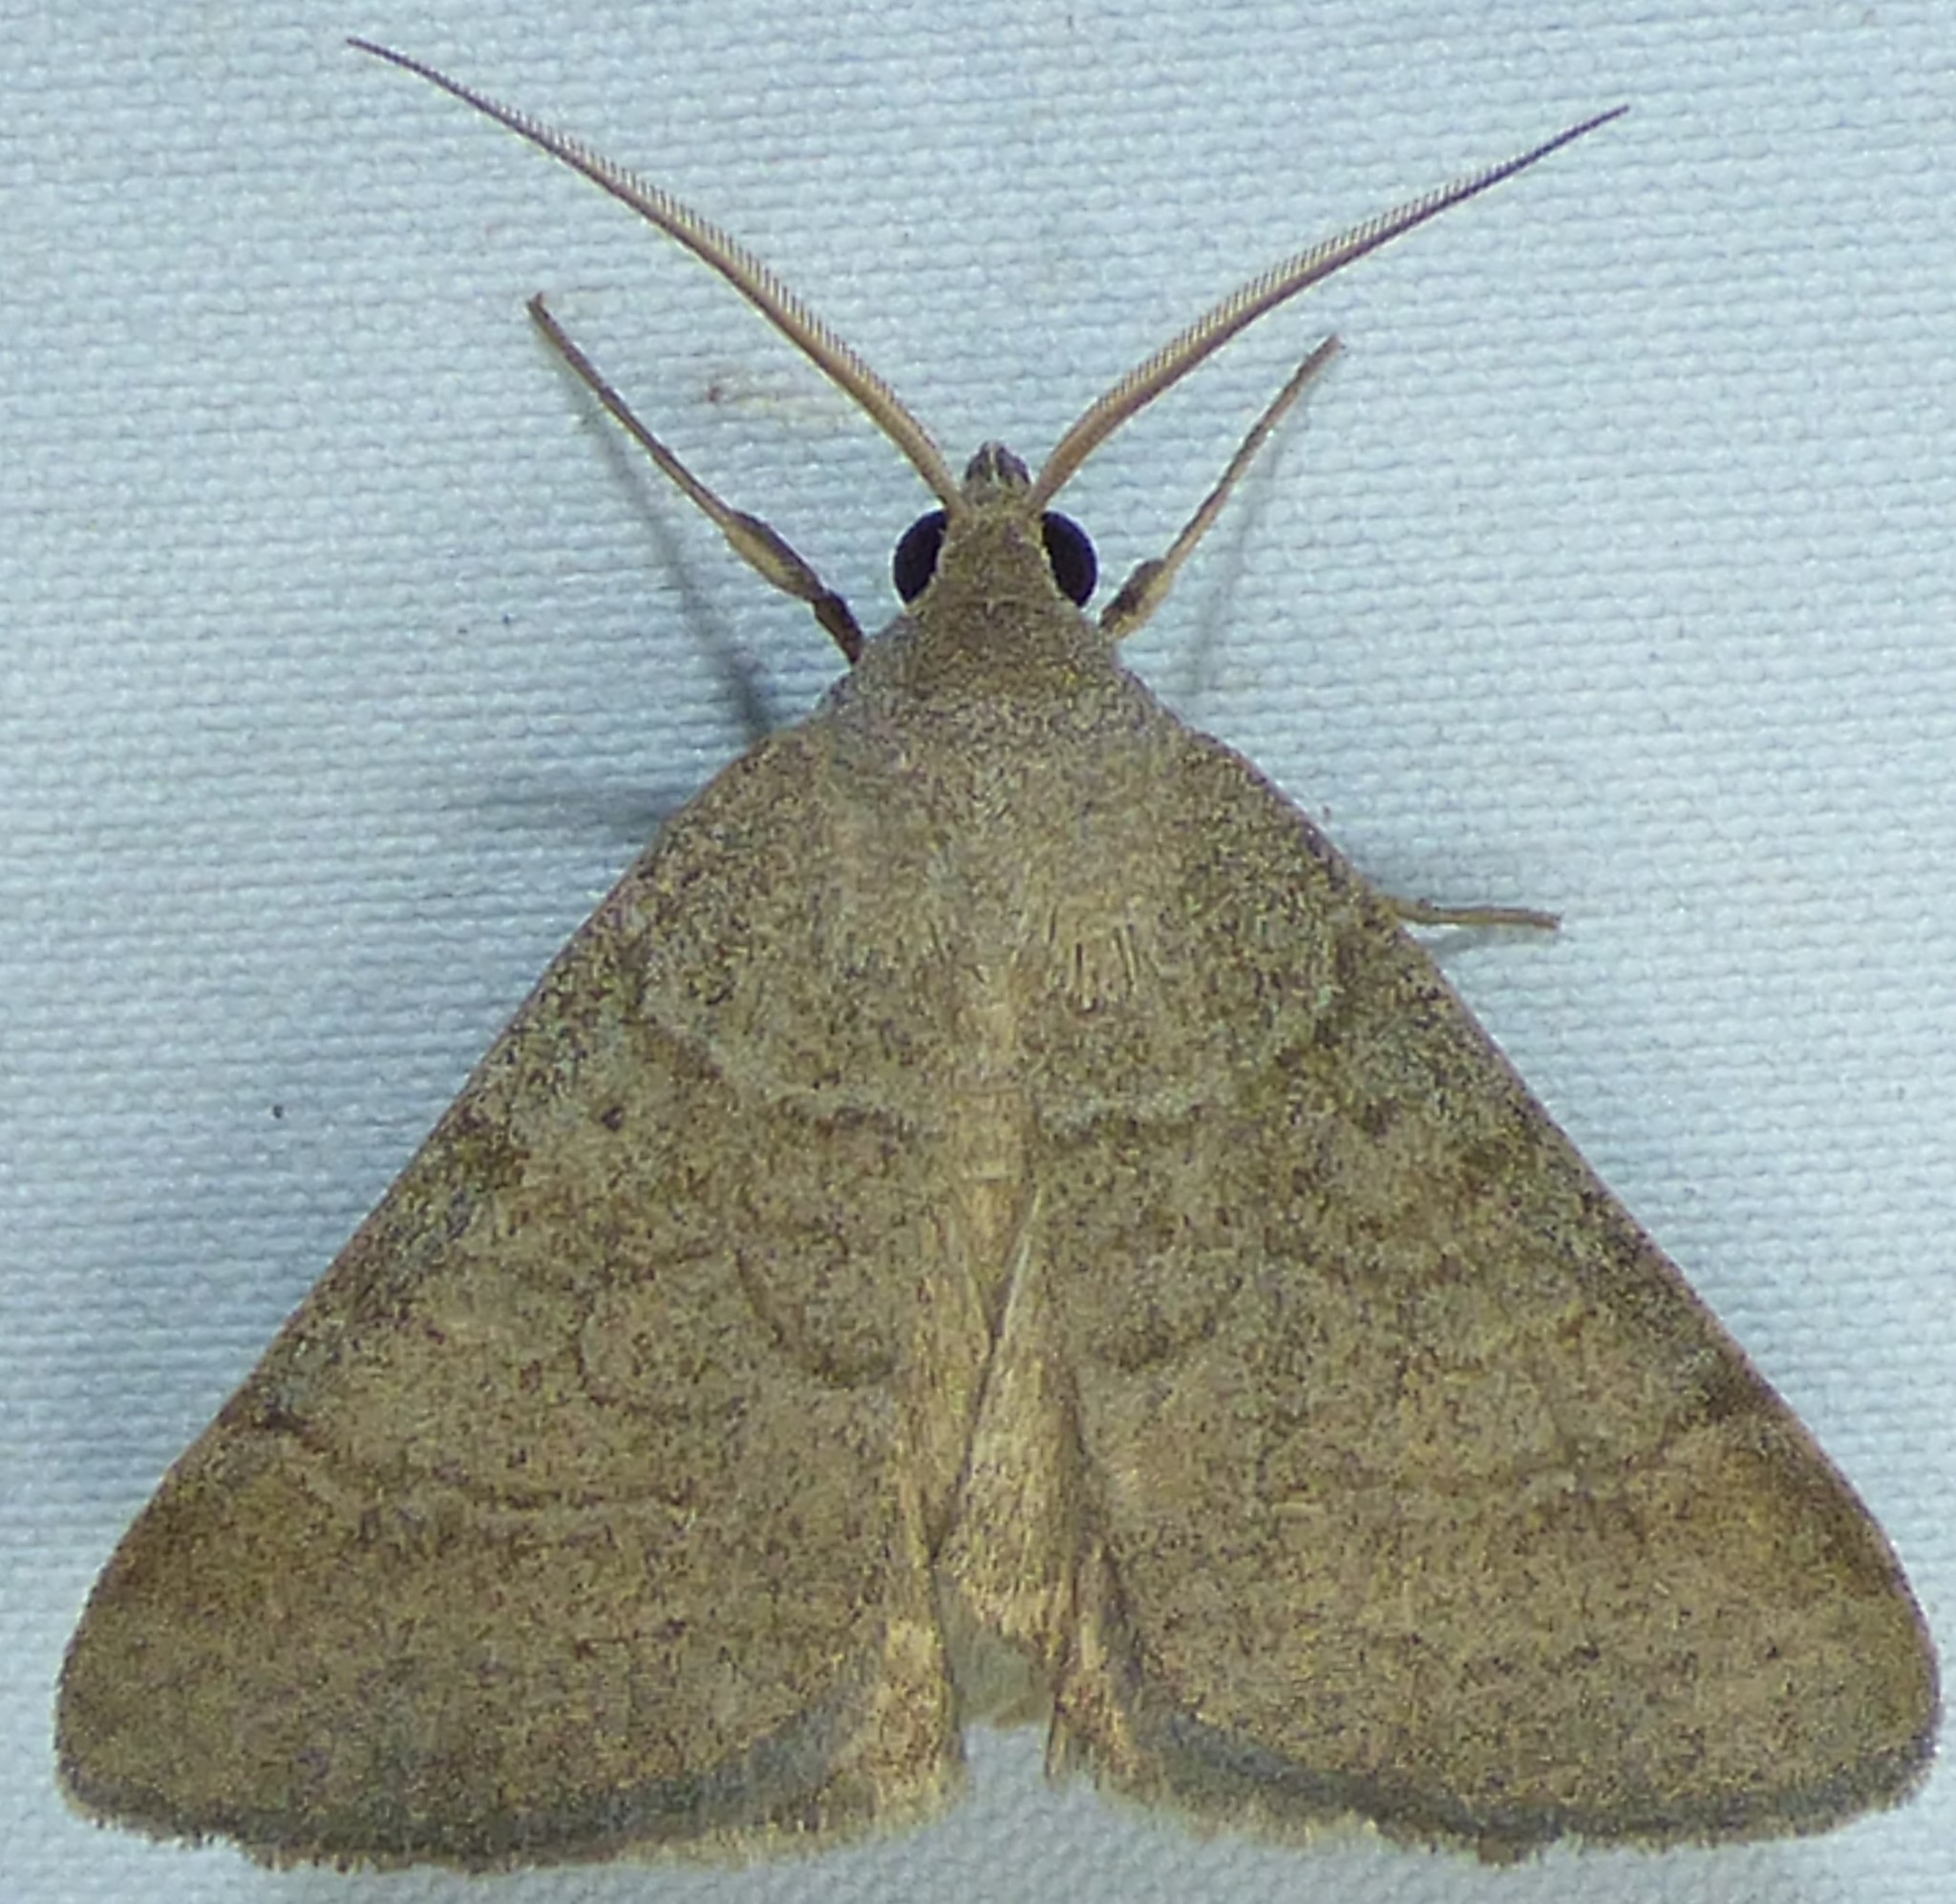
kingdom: Animalia
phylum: Arthropoda
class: Insecta
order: Lepidoptera
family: Erebidae
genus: Caenurgia
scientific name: Caenurgia chloropha
